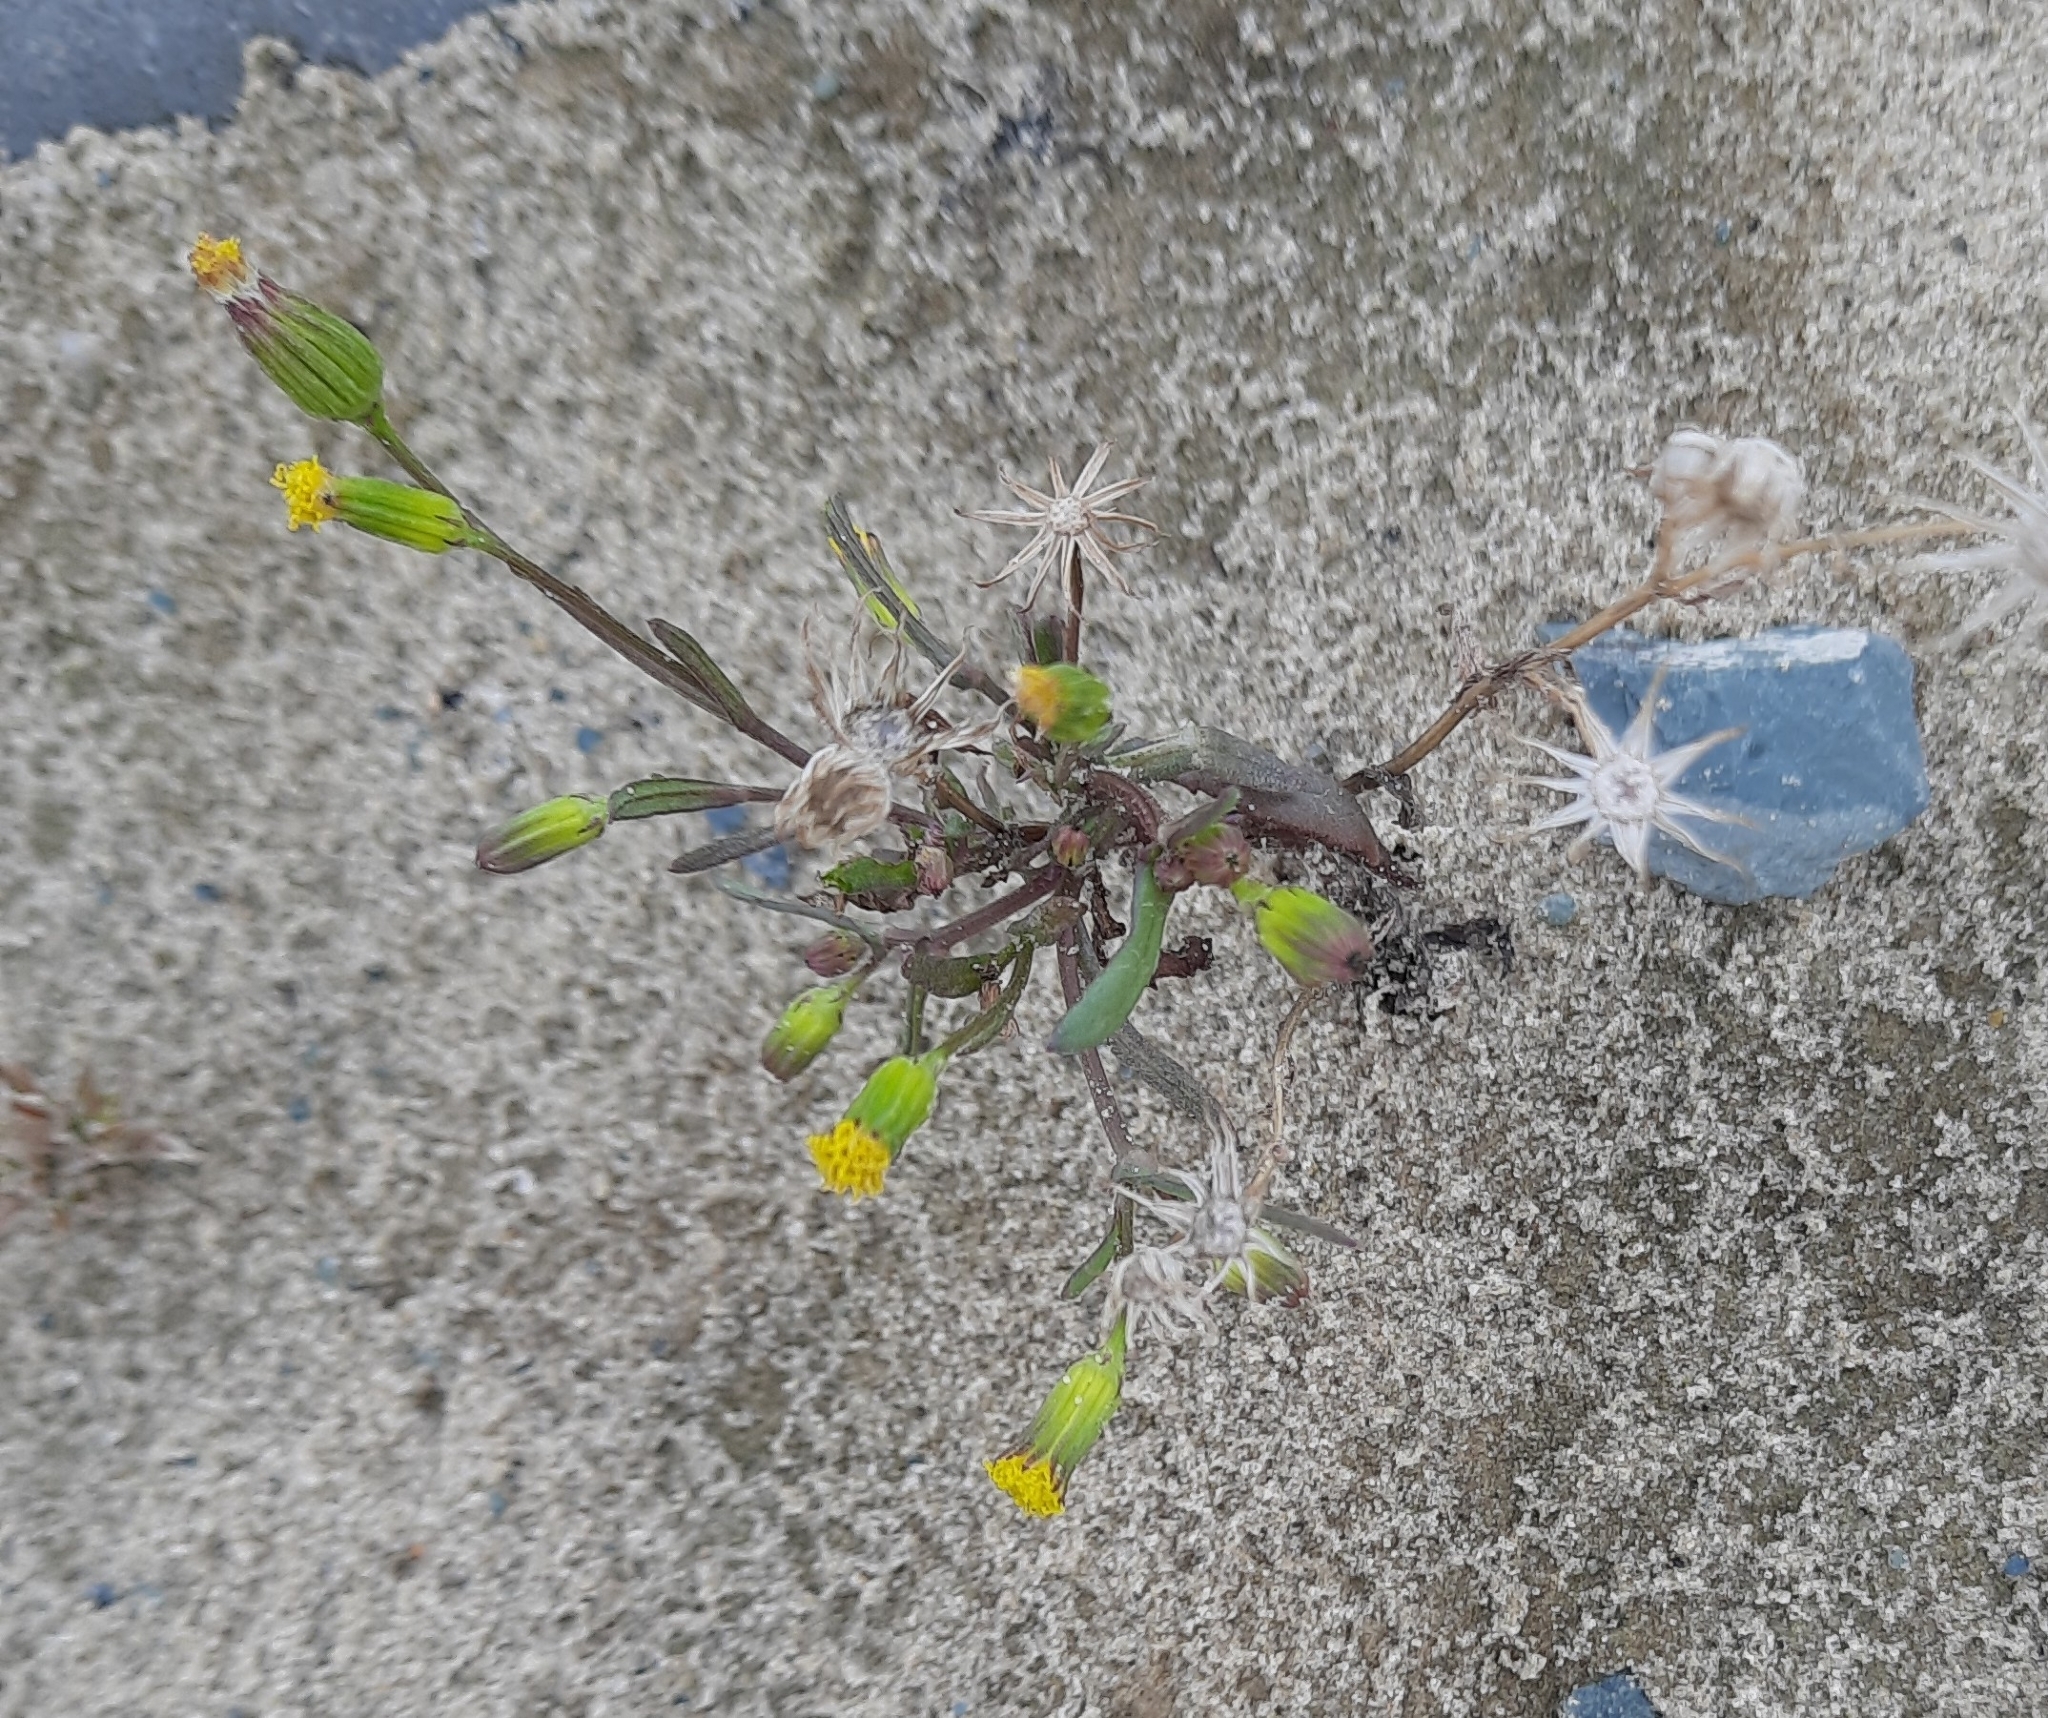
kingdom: Plantae
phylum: Tracheophyta
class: Magnoliopsida
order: Asterales
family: Asteraceae
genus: Senecio
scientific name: Senecio dubitabilis
